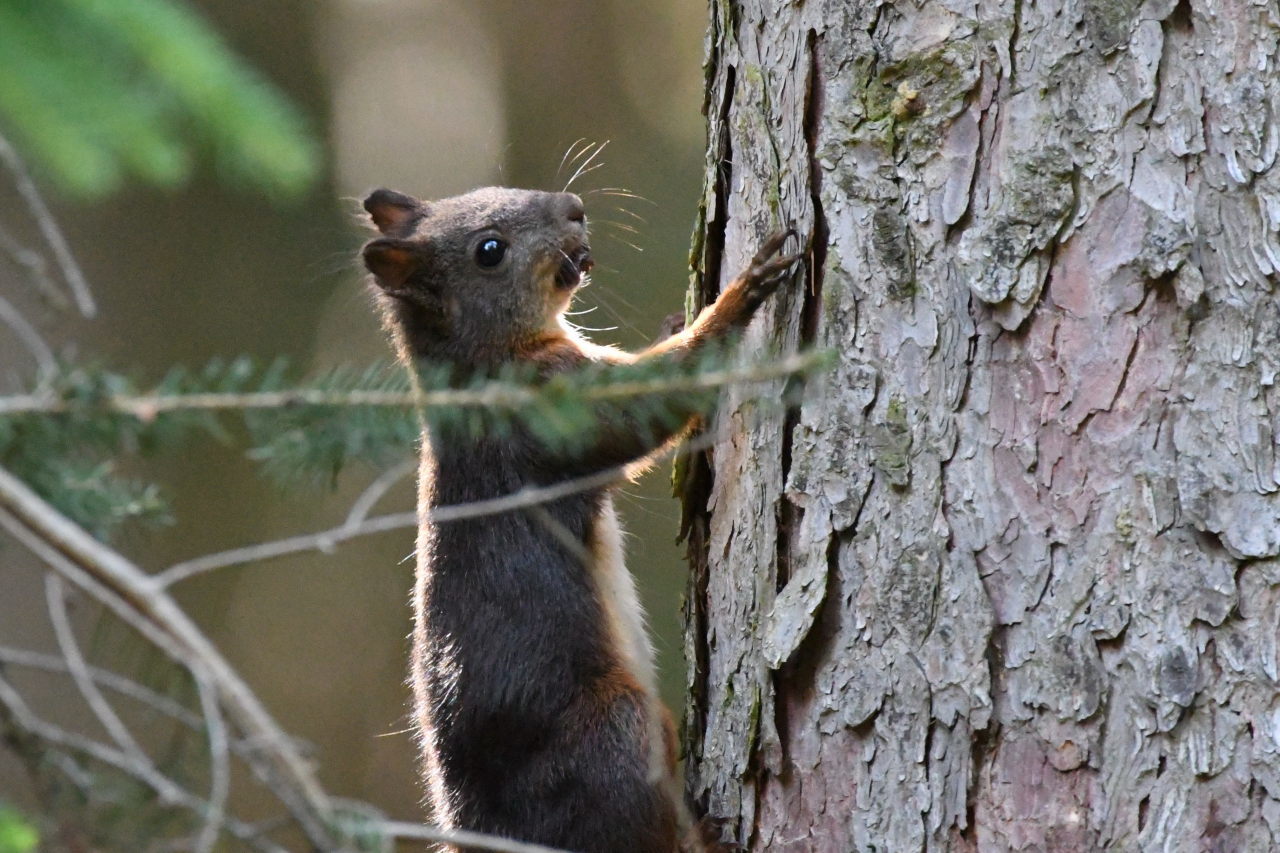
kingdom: Animalia
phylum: Chordata
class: Mammalia
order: Rodentia
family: Sciuridae
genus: Sciurus
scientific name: Sciurus vulgaris
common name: Eurasian red squirrel
